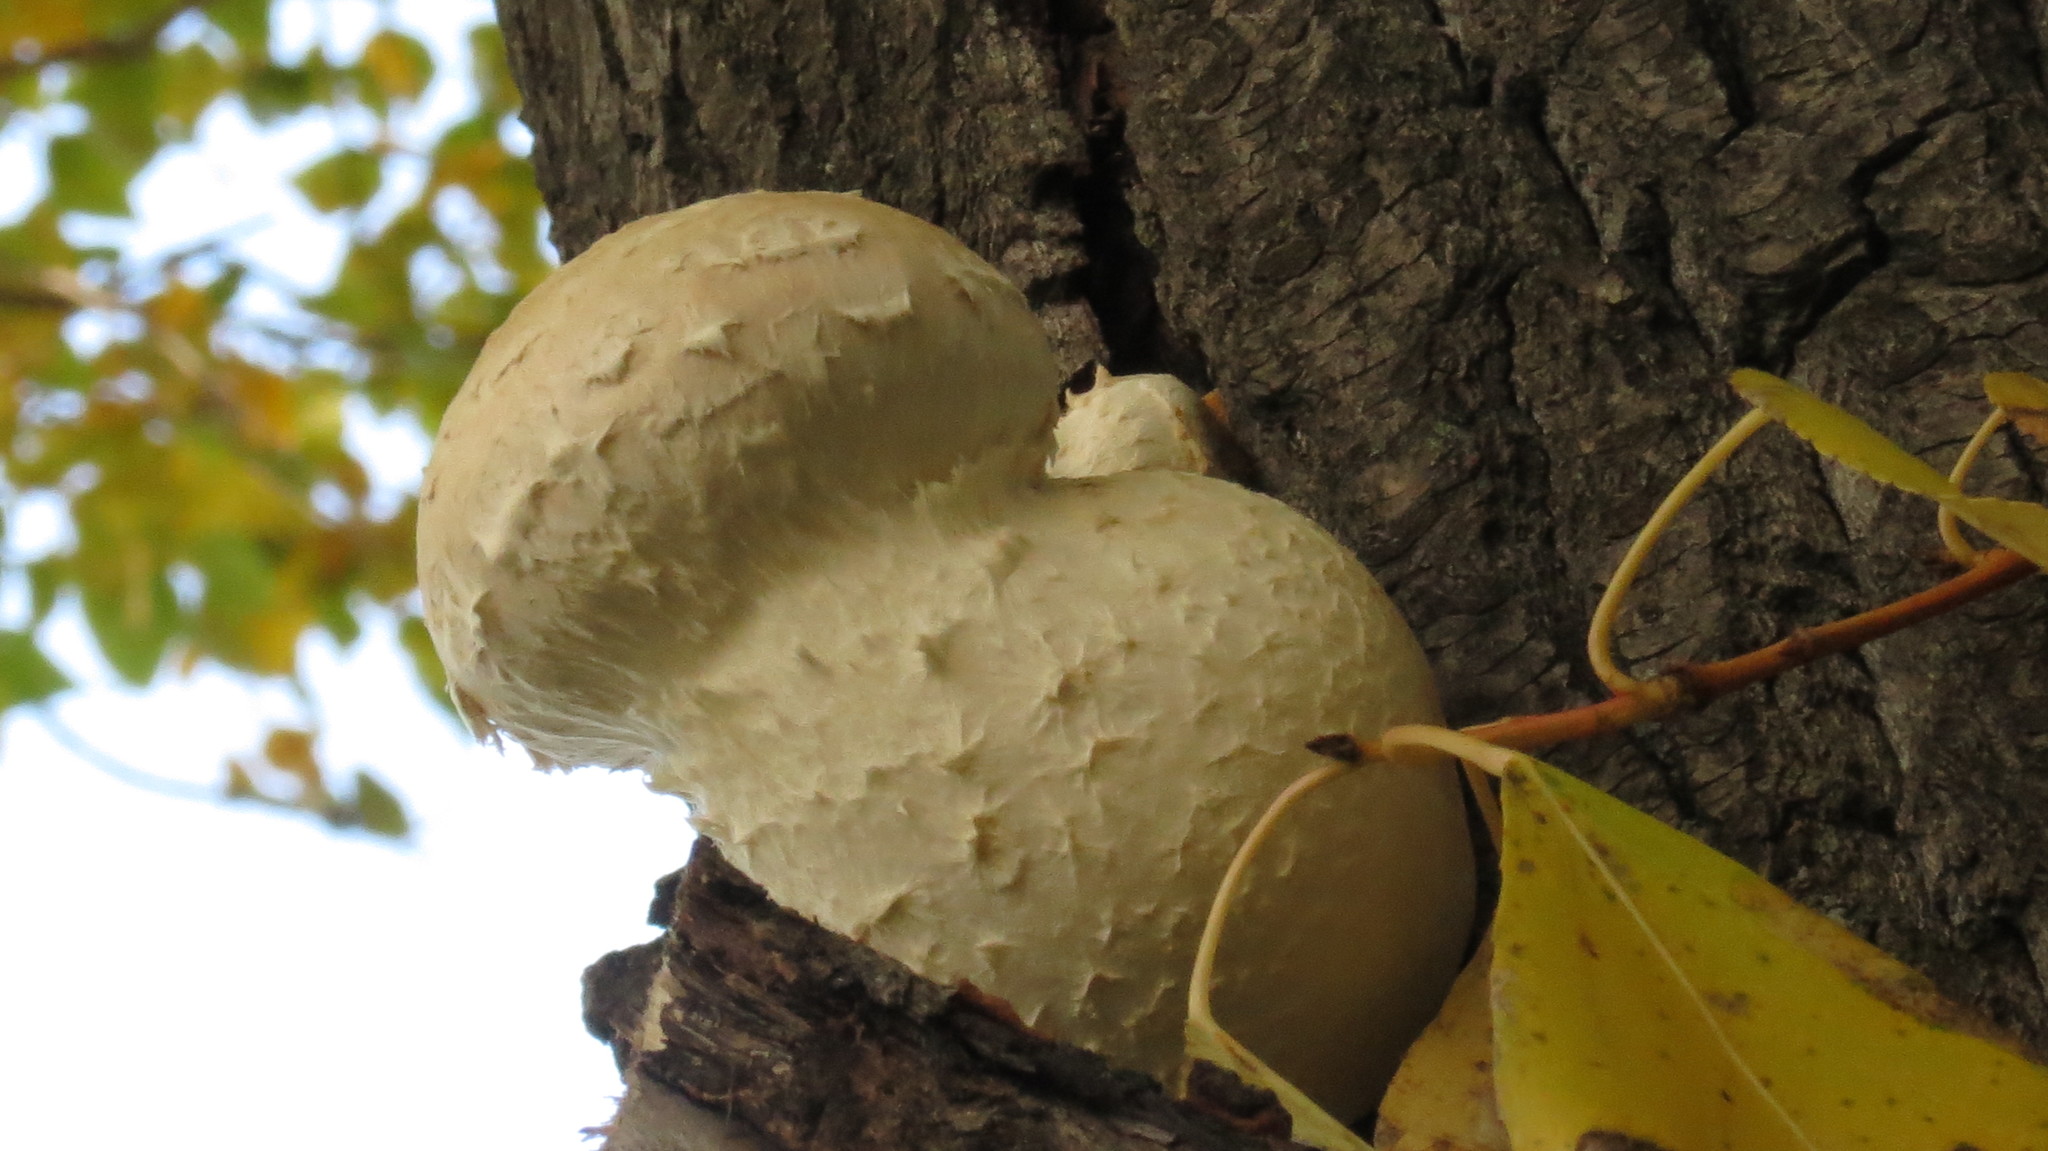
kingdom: Fungi
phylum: Basidiomycota
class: Agaricomycetes
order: Agaricales
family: Strophariaceae
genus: Pholiota
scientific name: Pholiota populnea
